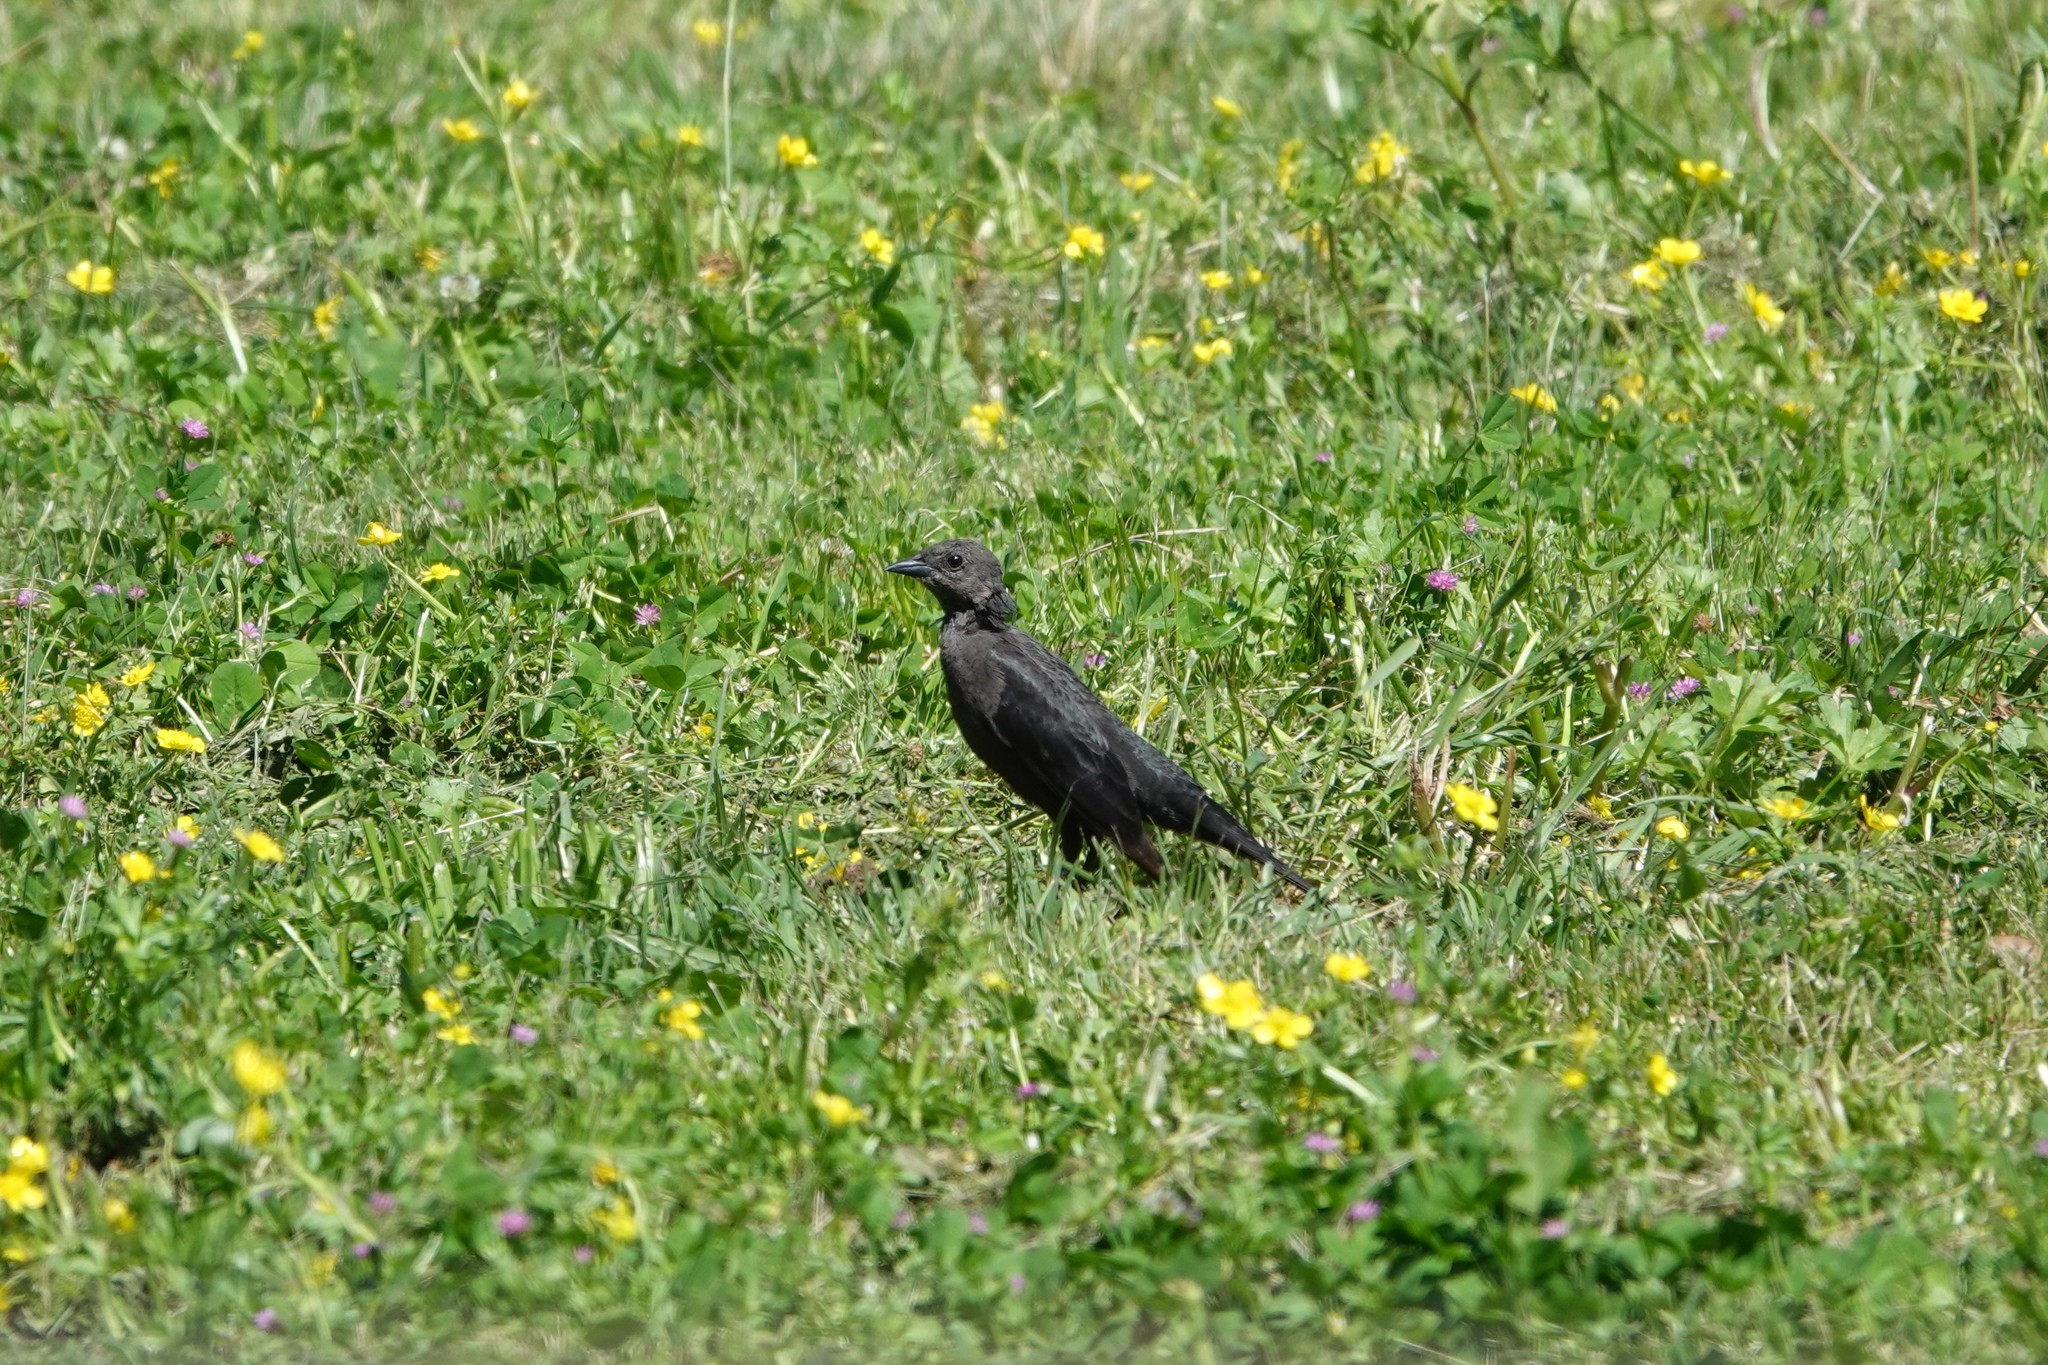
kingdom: Animalia
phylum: Chordata
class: Aves
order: Passeriformes
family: Icteridae
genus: Euphagus
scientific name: Euphagus cyanocephalus
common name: Brewer's blackbird
